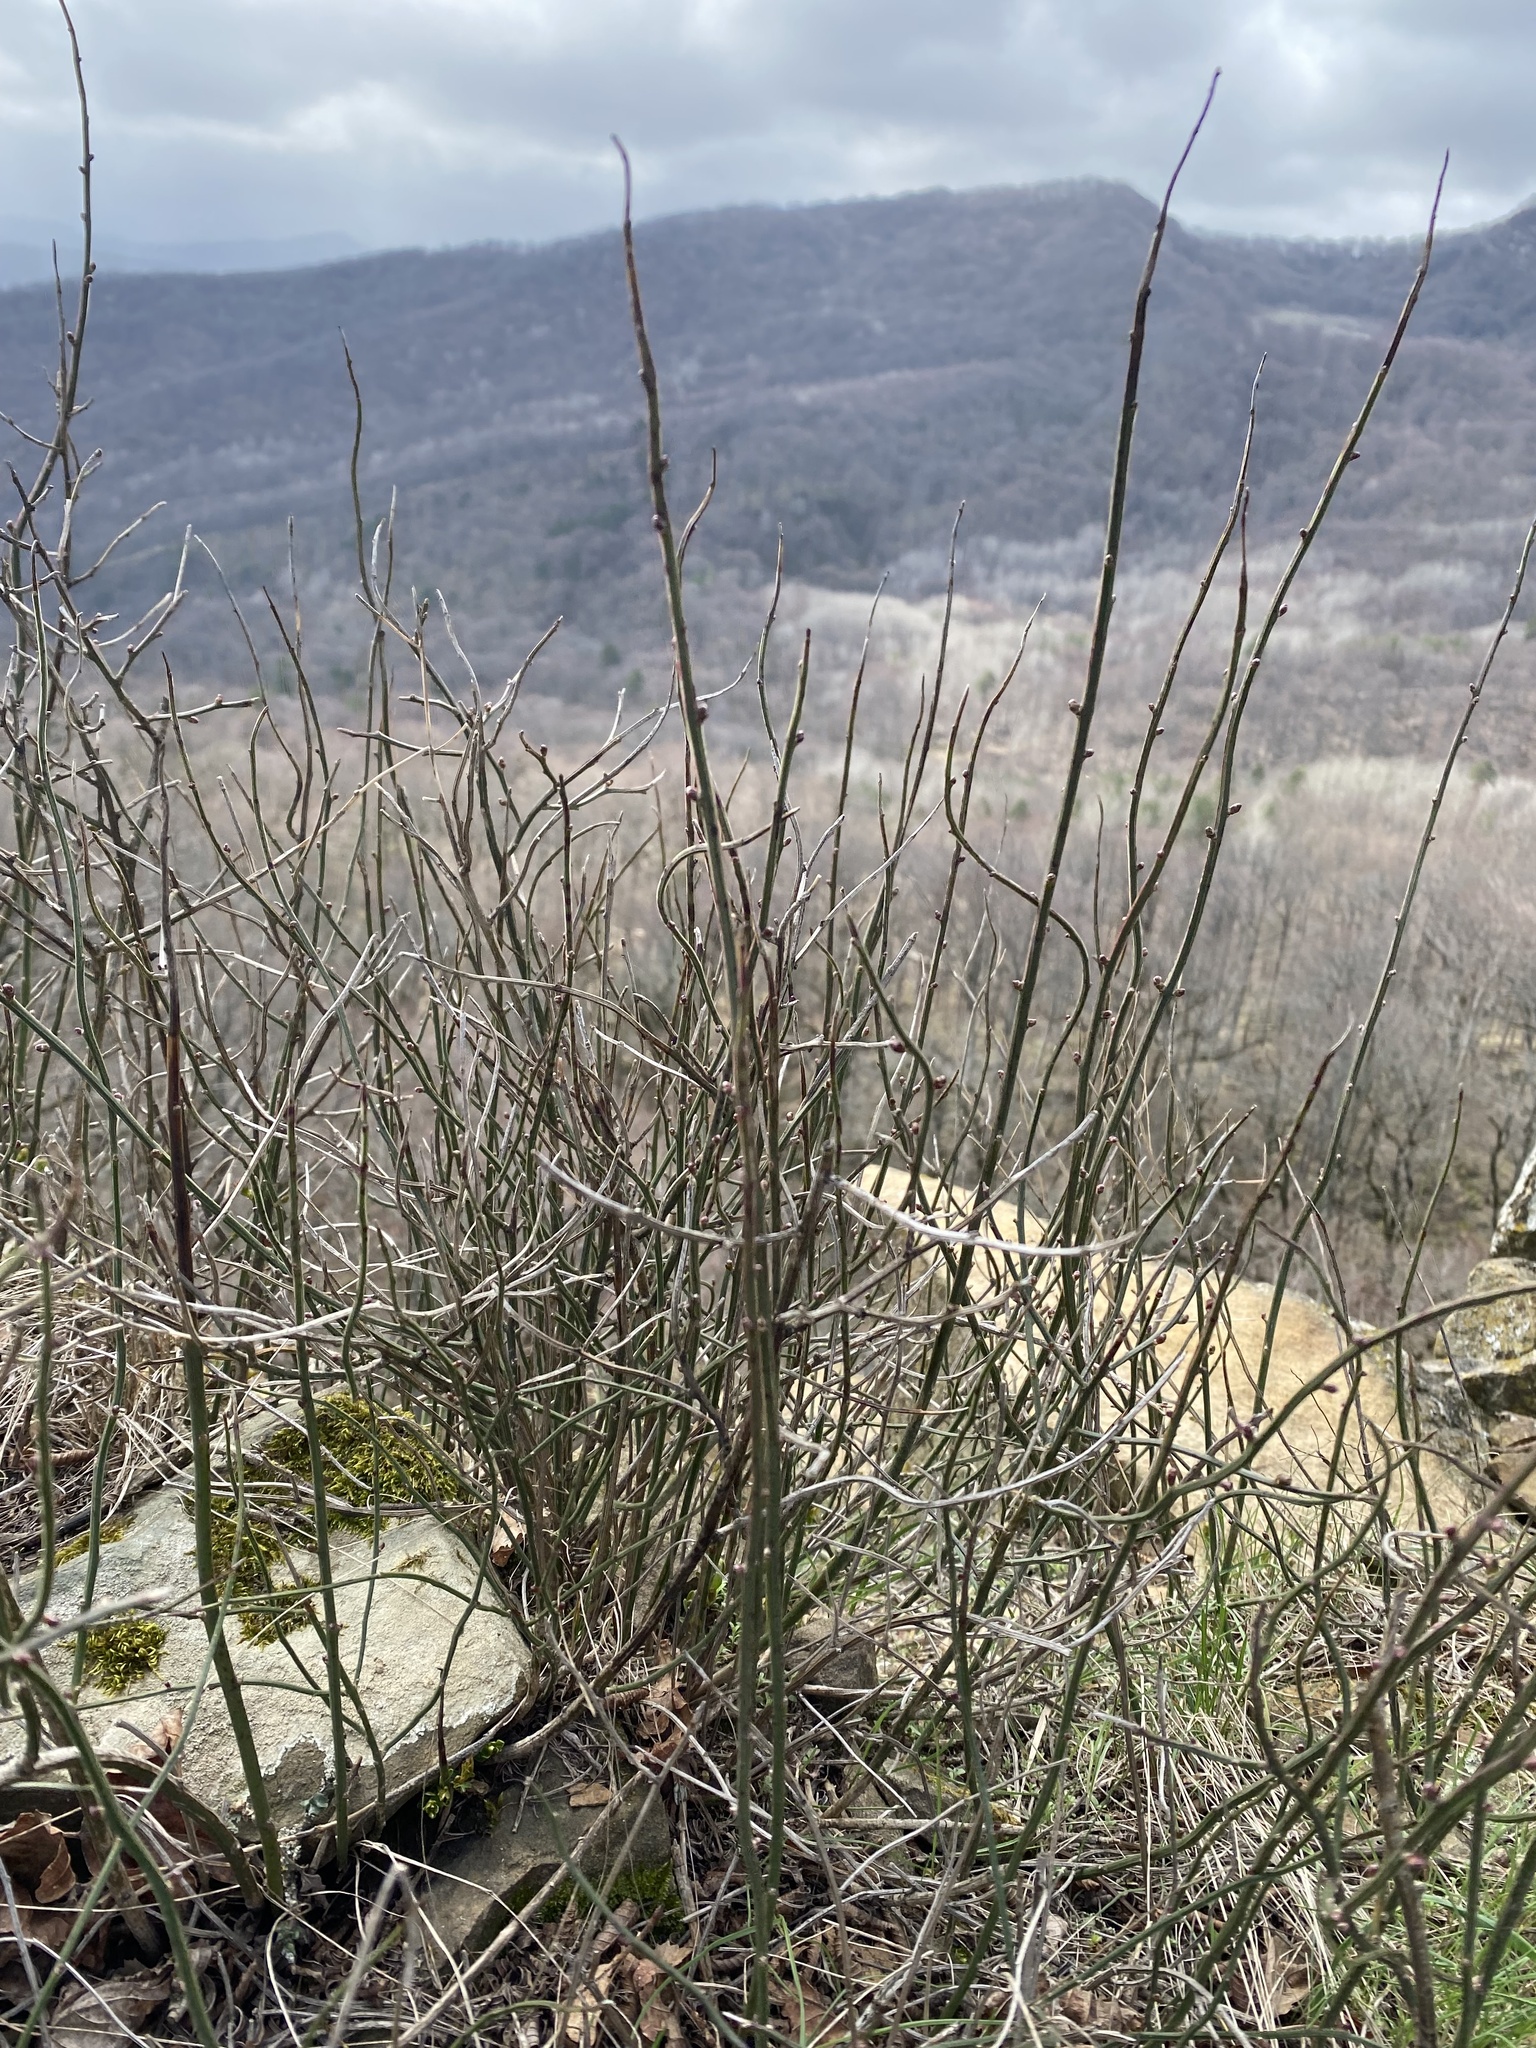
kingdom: Plantae
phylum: Tracheophyta
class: Magnoliopsida
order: Lamiales
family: Oleaceae
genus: Chrysojasminum
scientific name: Chrysojasminum fruticans
